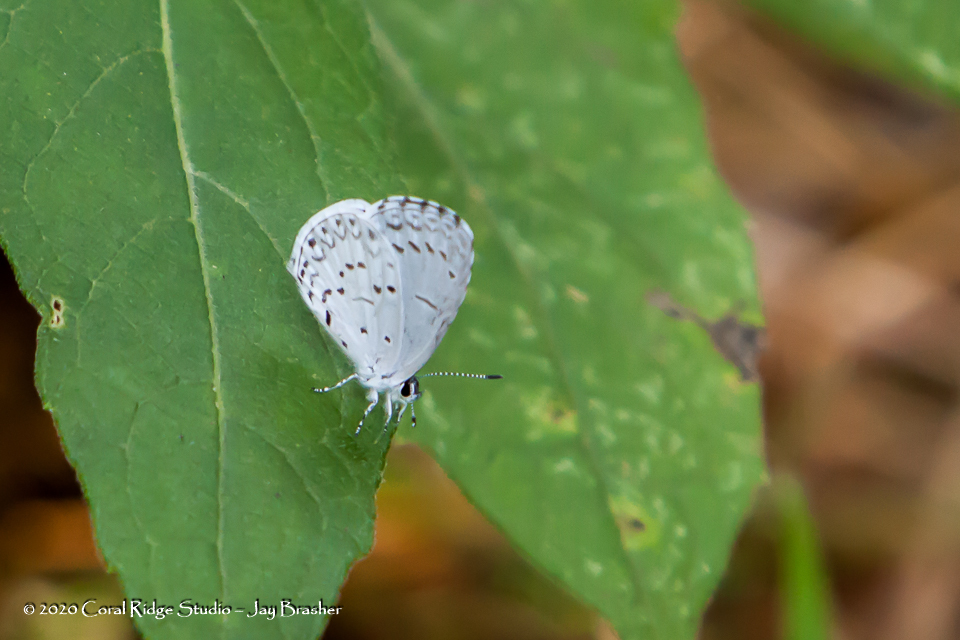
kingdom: Animalia
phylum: Arthropoda
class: Insecta
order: Lepidoptera
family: Lycaenidae
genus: Cyaniris
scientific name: Cyaniris neglecta
